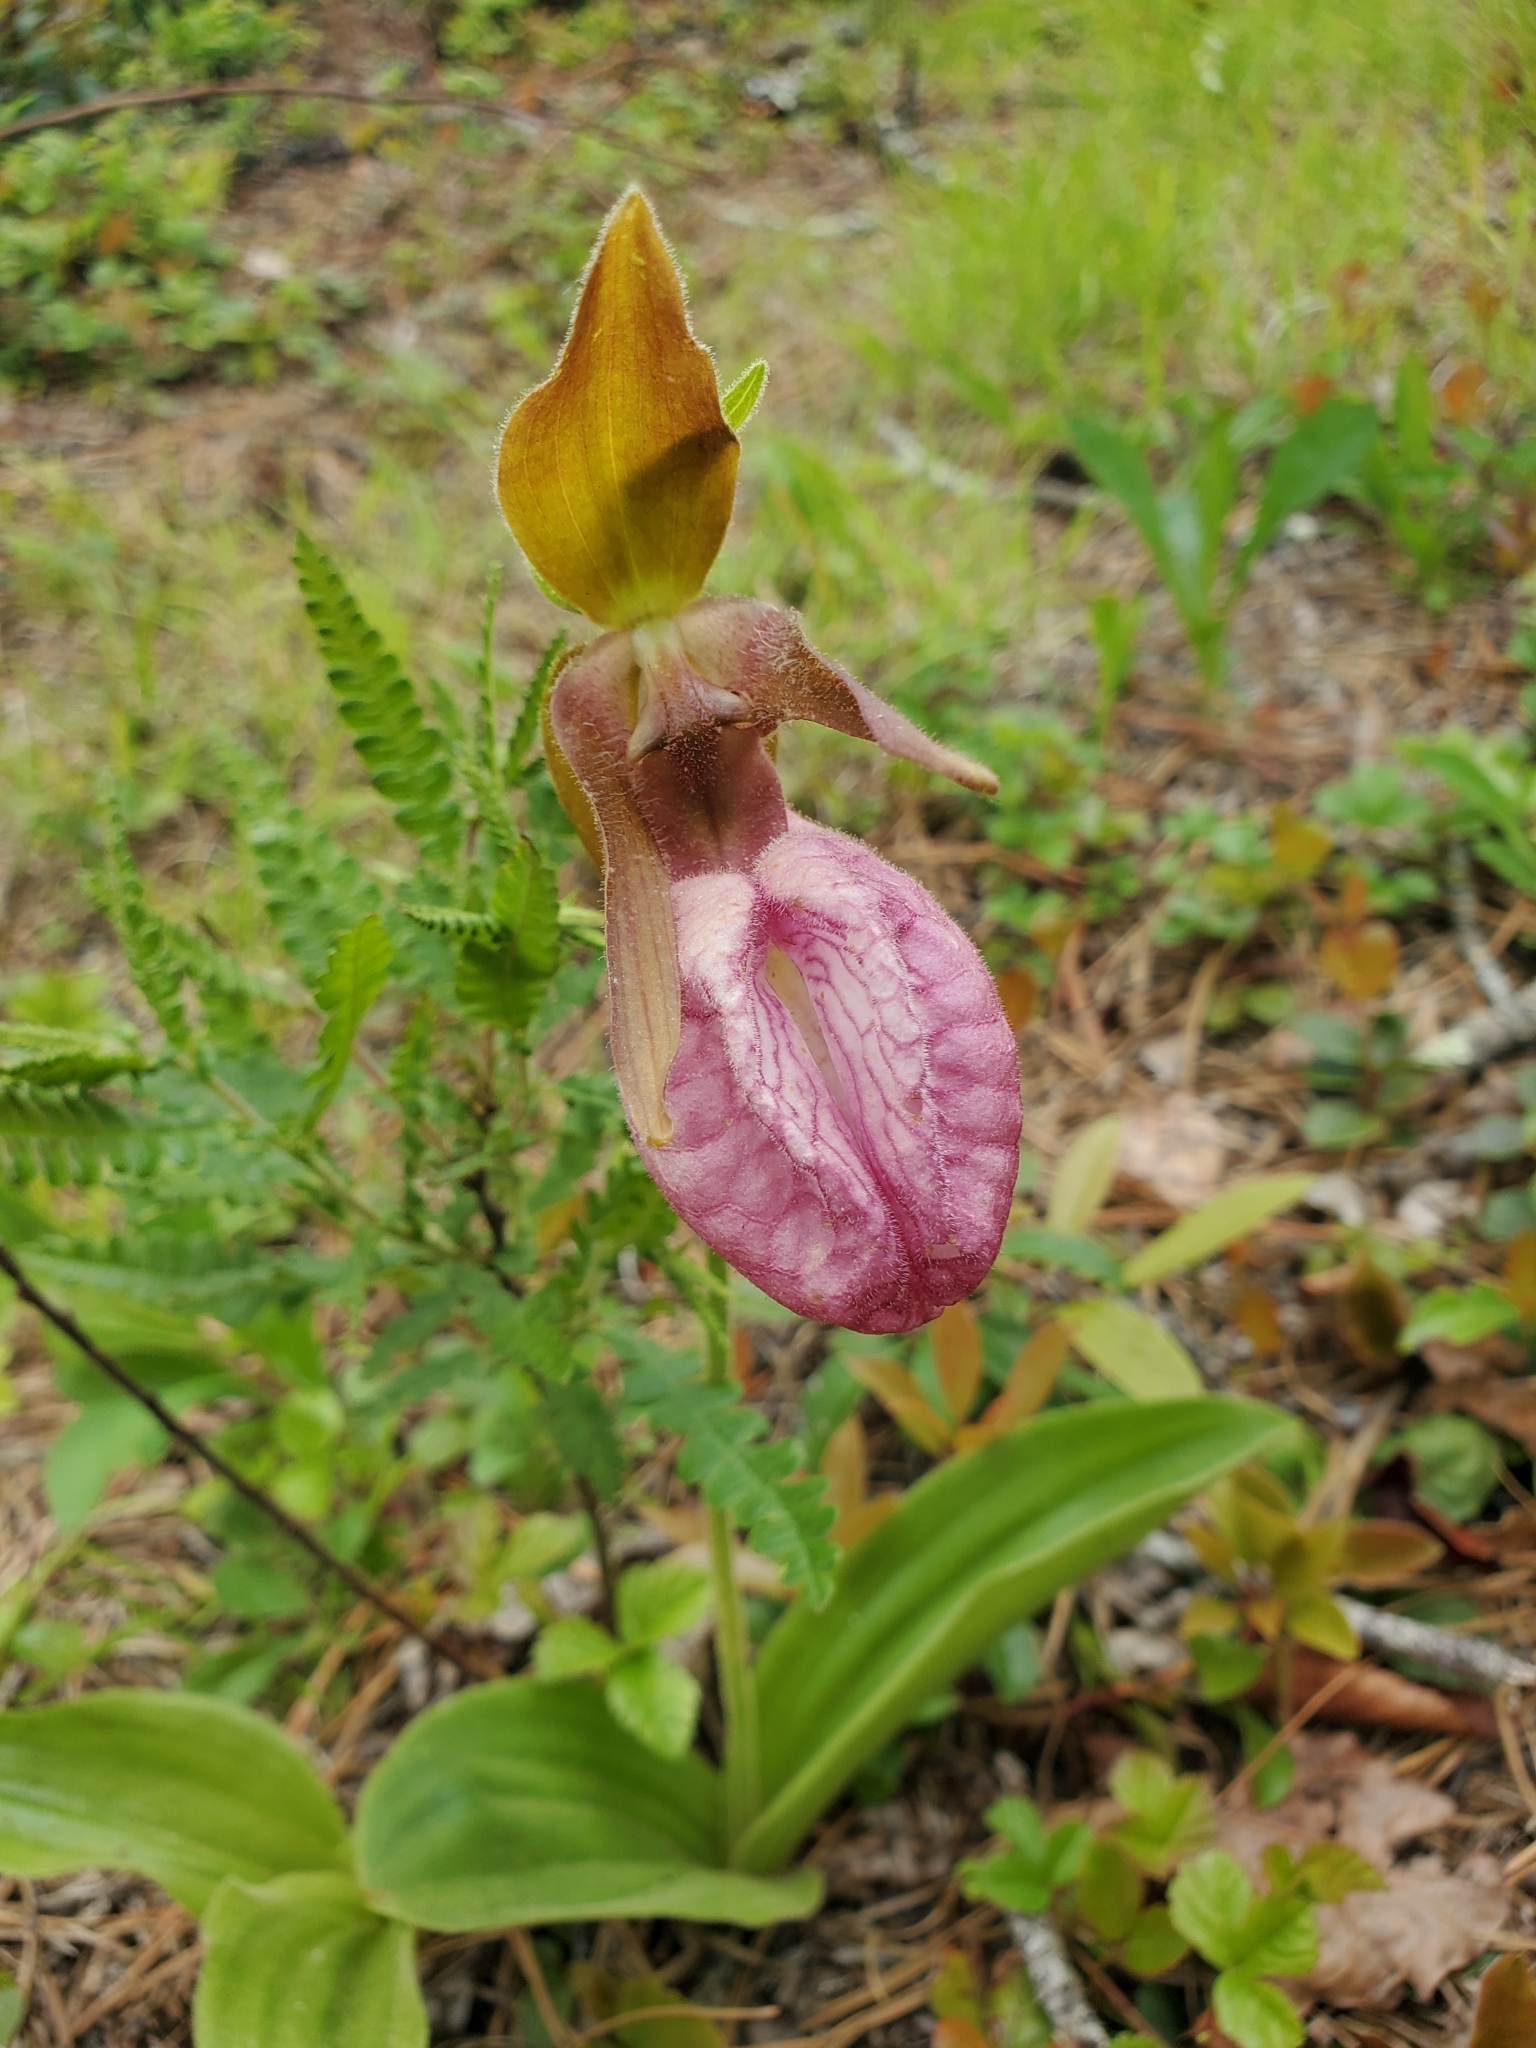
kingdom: Plantae
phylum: Tracheophyta
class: Liliopsida
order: Asparagales
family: Orchidaceae
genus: Cypripedium
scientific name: Cypripedium acaule
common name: Pink lady's-slipper
